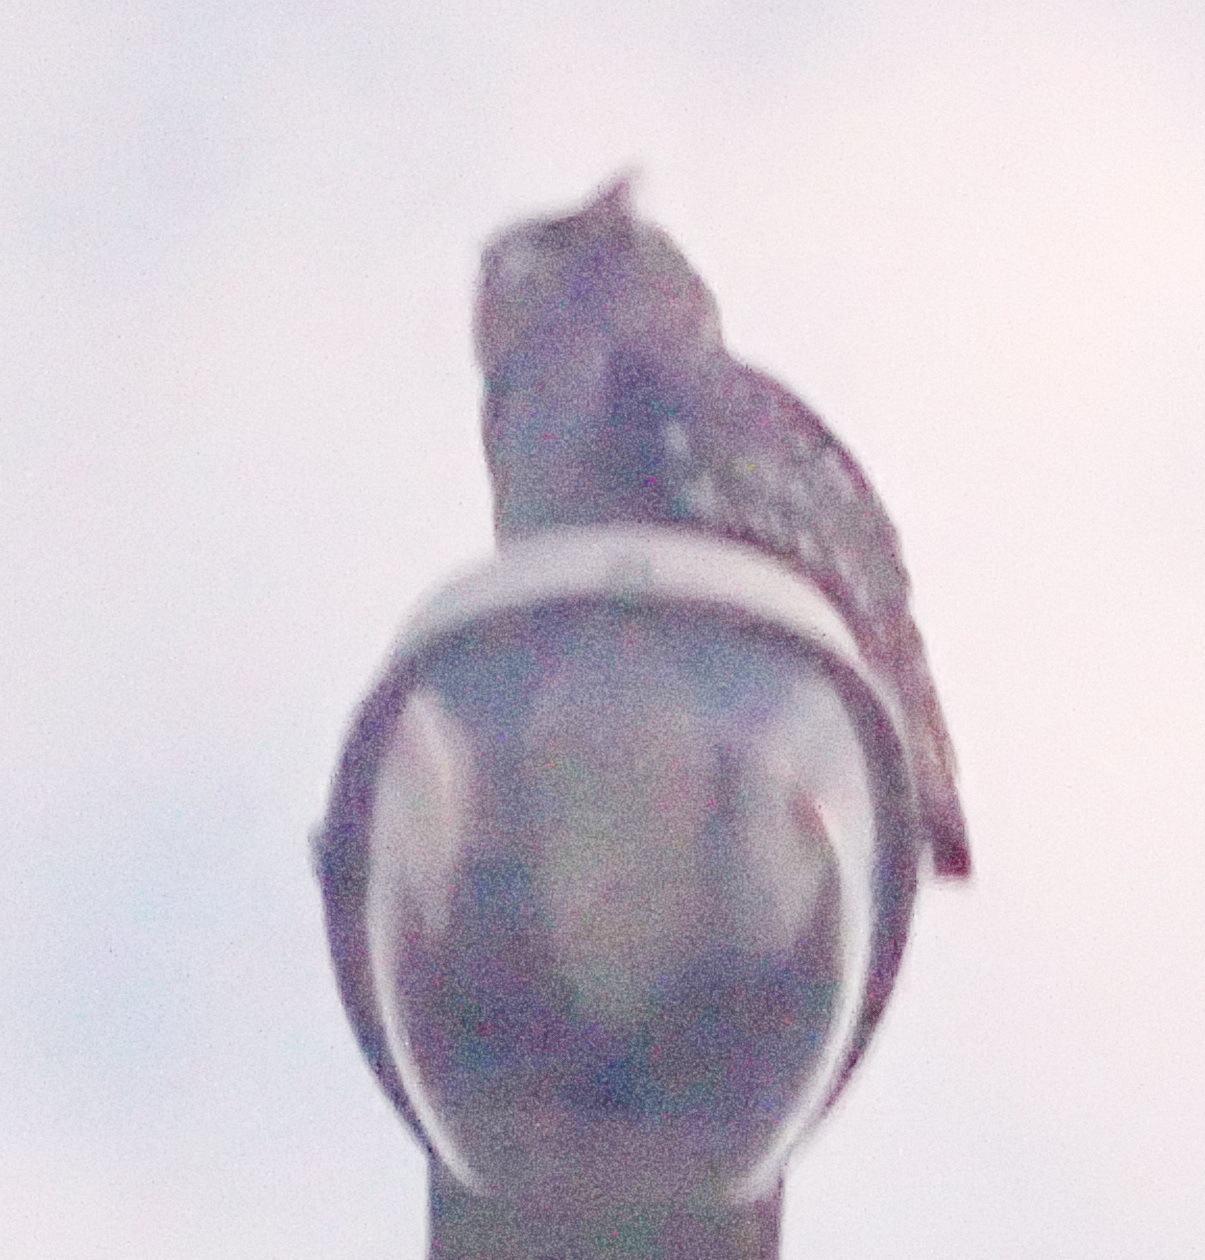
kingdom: Animalia
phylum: Chordata
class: Aves
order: Strigiformes
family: Strigidae
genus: Bubo
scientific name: Bubo africanus
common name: Spotted eagle-owl
